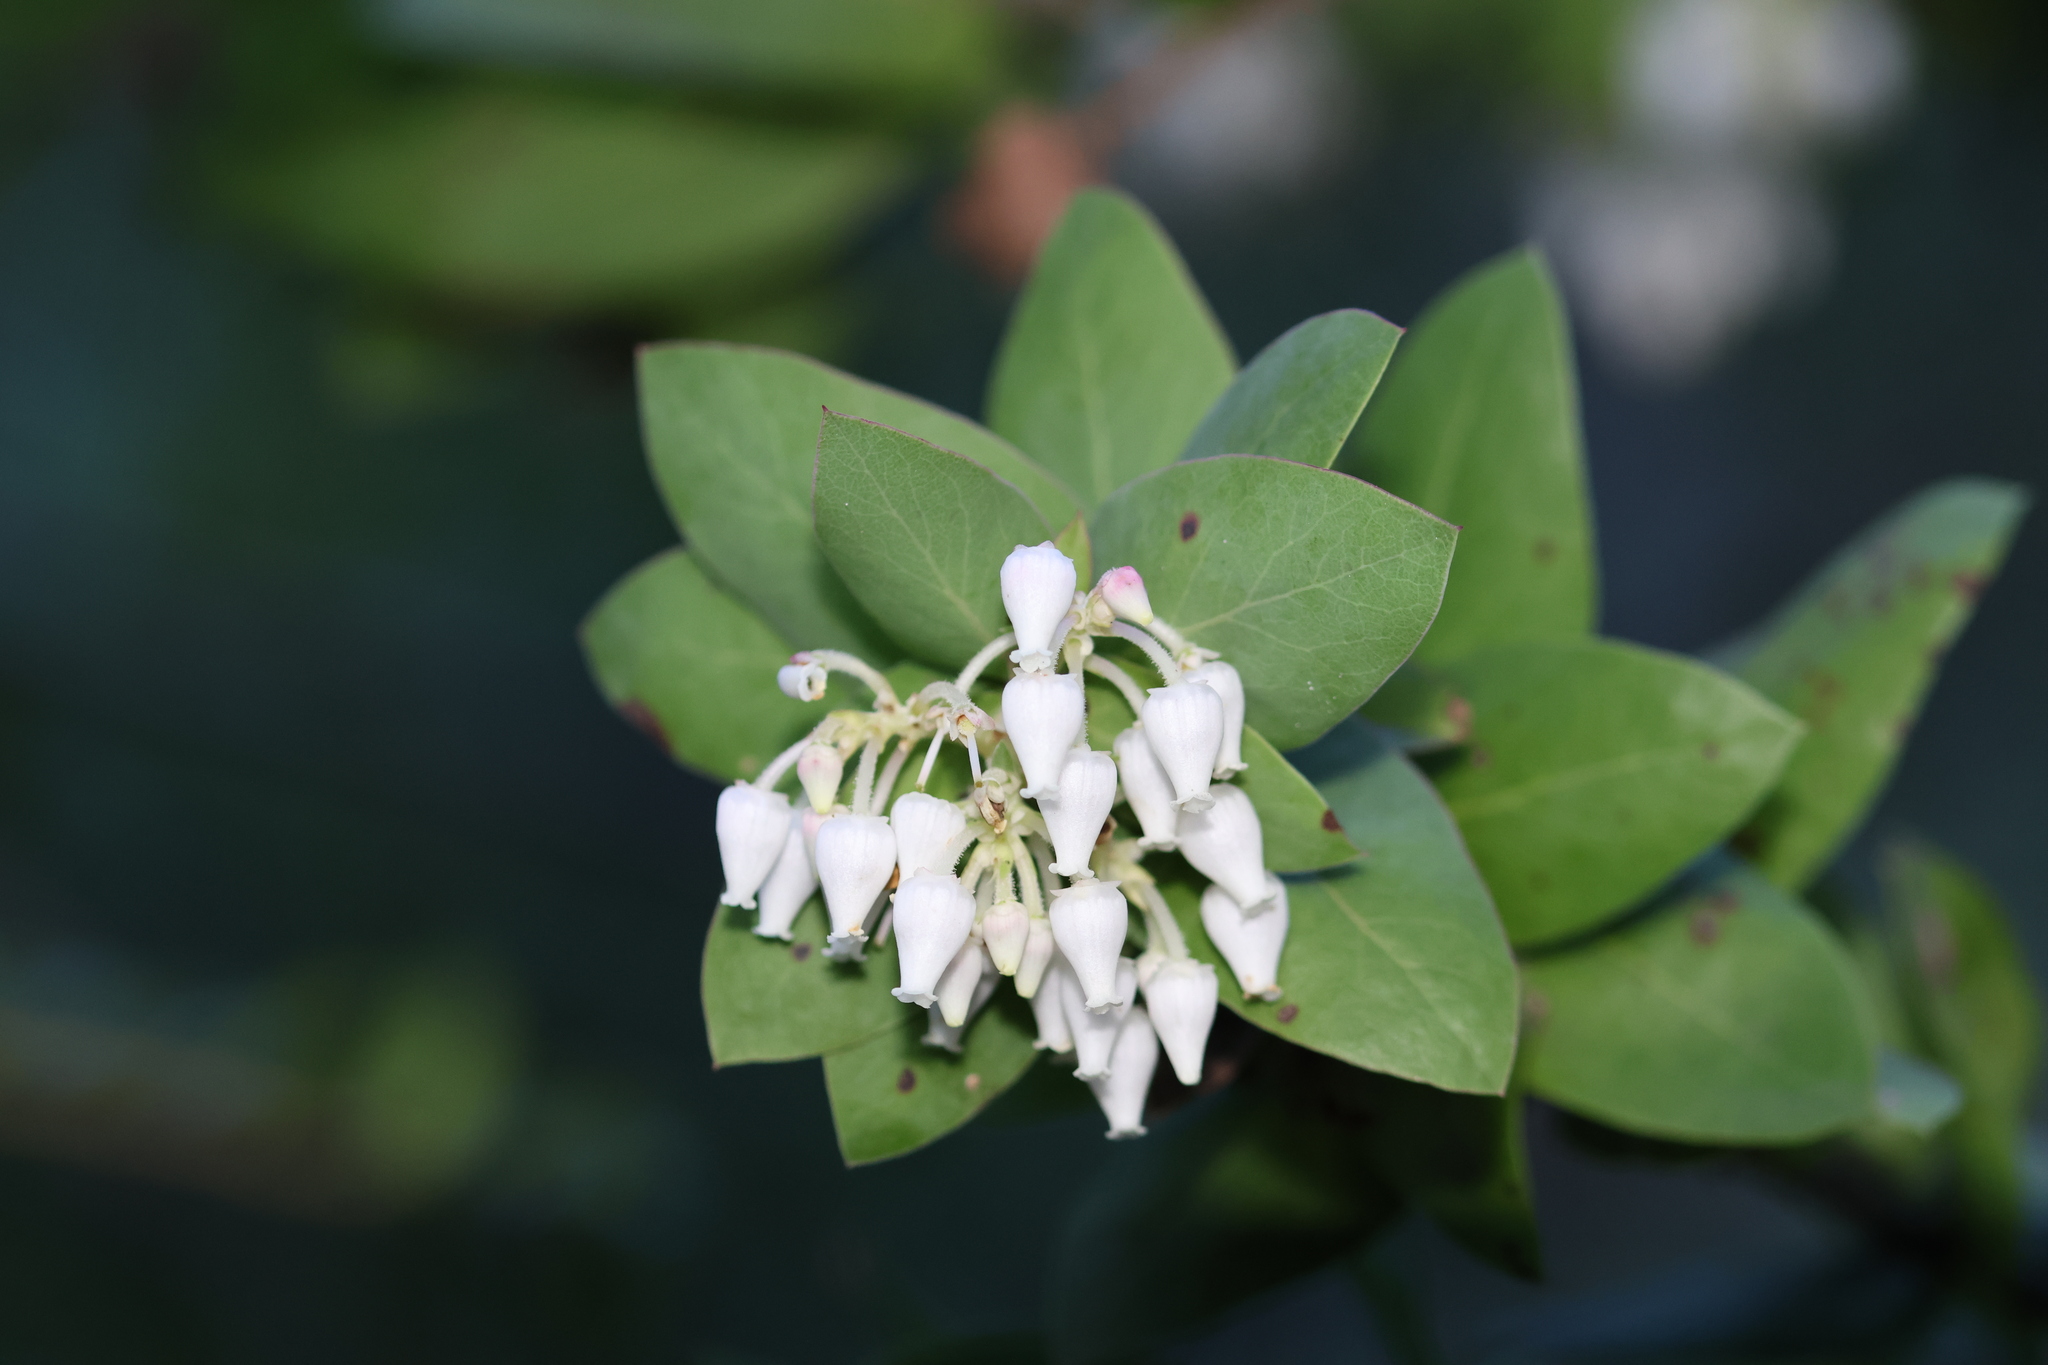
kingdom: Plantae
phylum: Tracheophyta
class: Magnoliopsida
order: Ericales
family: Ericaceae
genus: Arctostaphylos
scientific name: Arctostaphylos pallida
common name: Pallid manzanita
